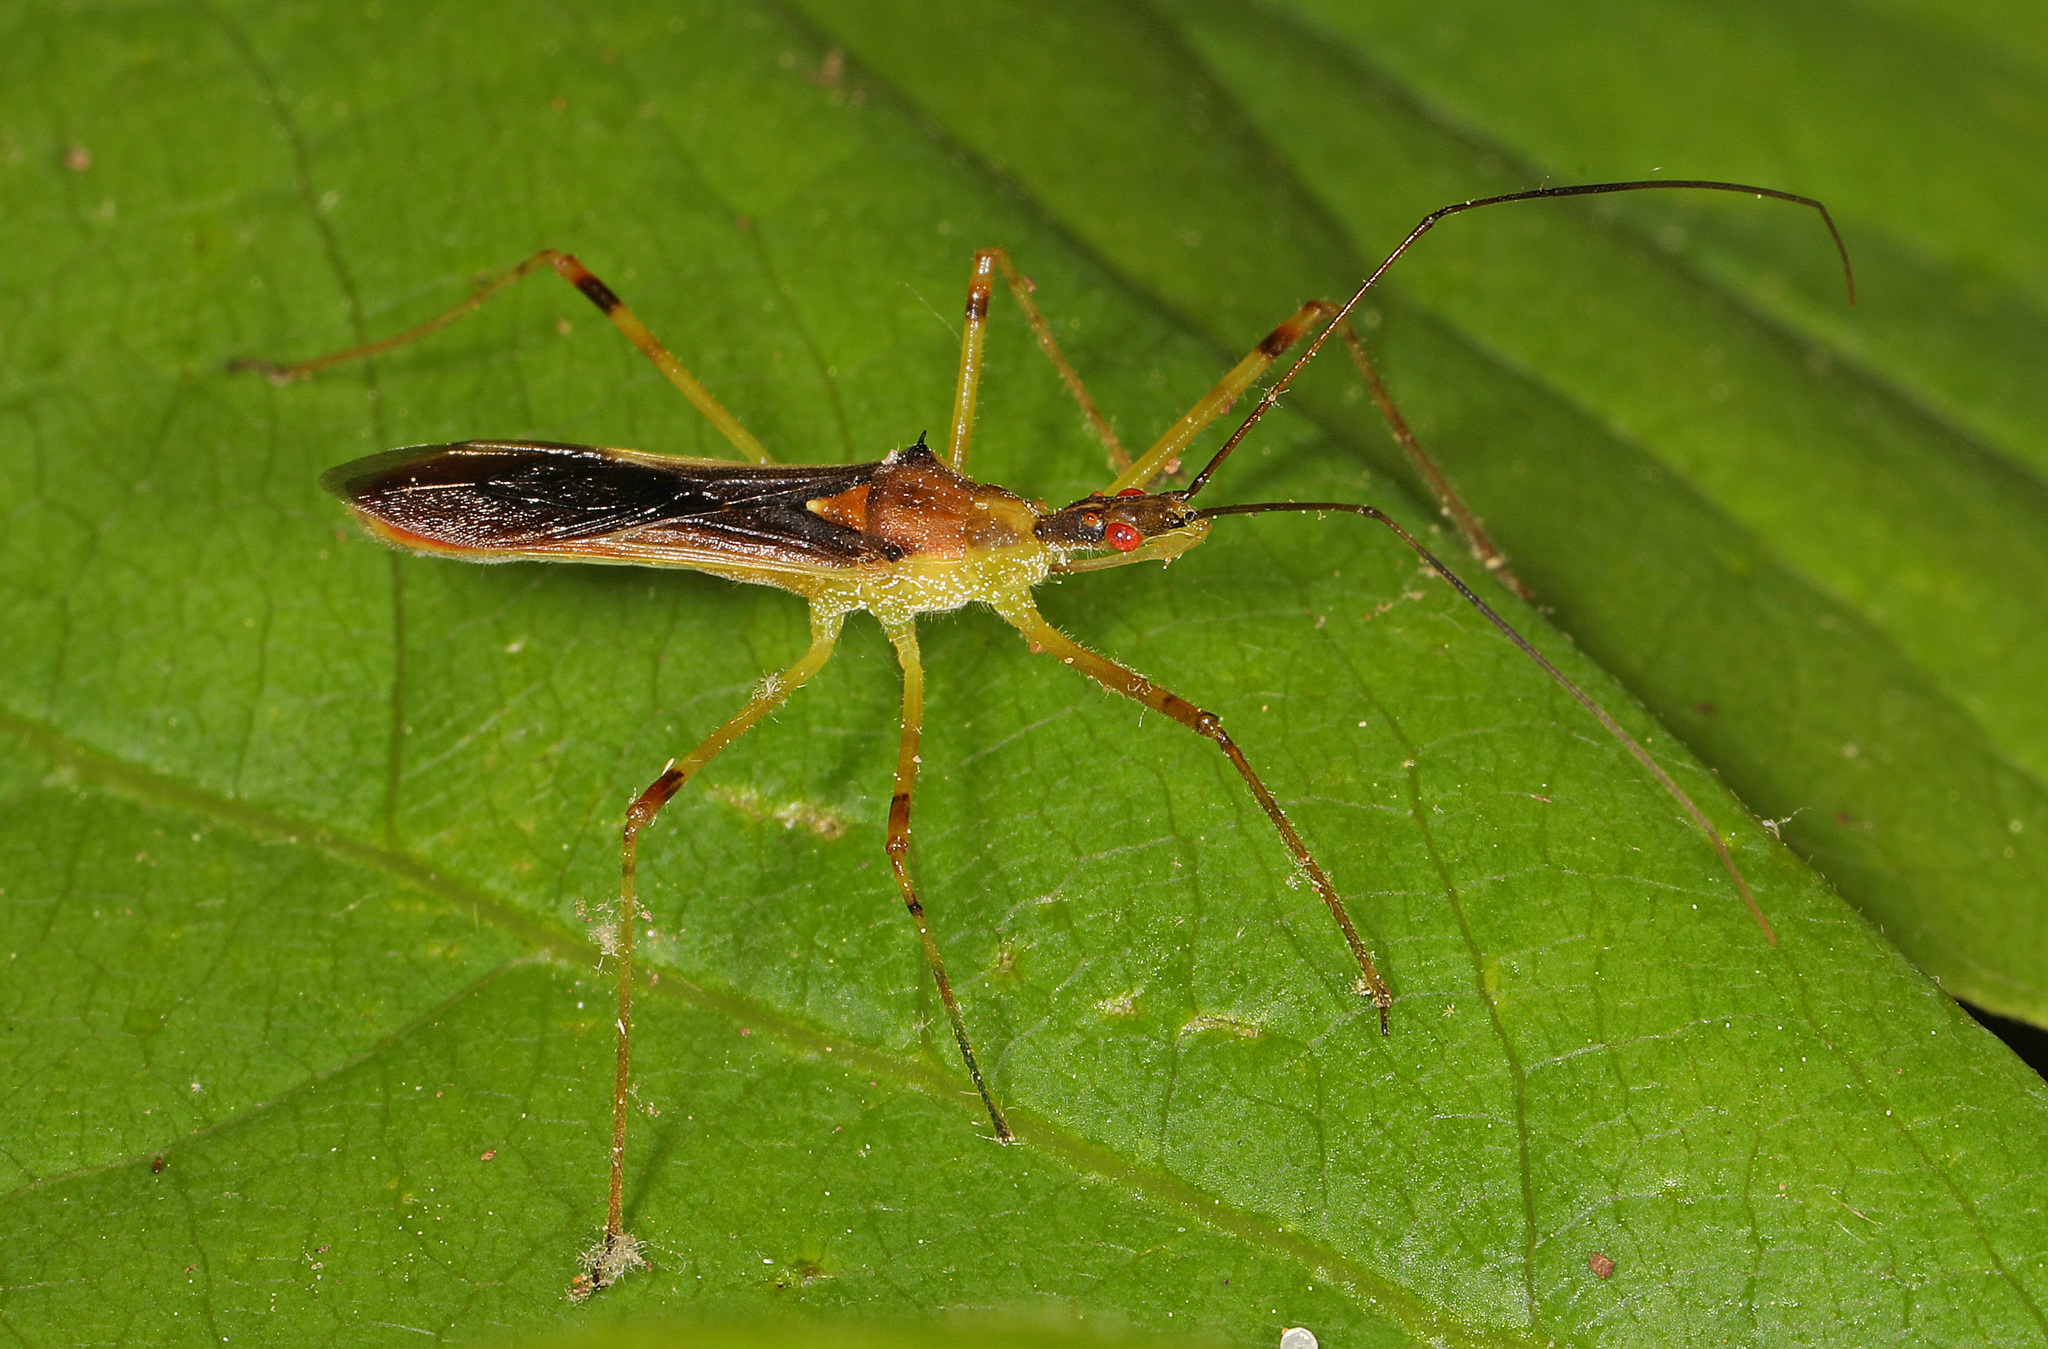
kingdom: Animalia
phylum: Arthropoda
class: Insecta
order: Hemiptera
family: Reduviidae
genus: Zelus
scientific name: Zelus luridus
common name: Pale green assassin bug
